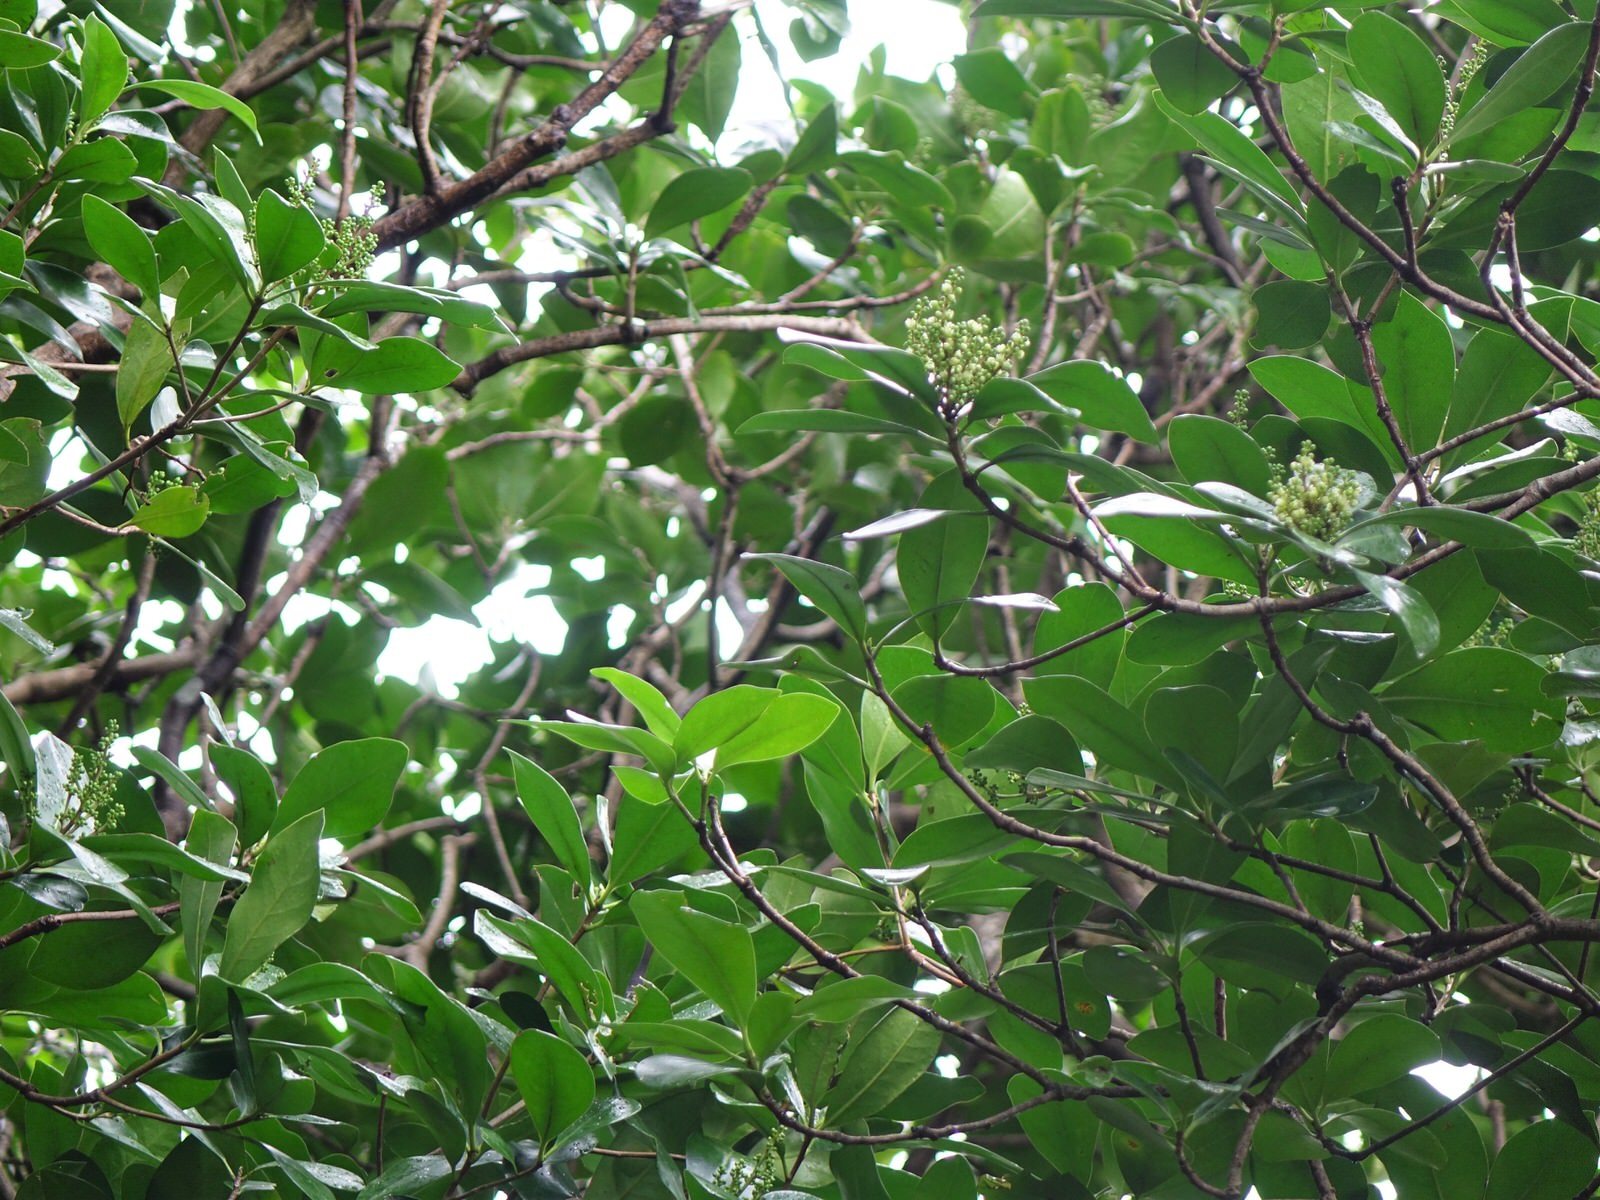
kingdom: Plantae
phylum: Tracheophyta
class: Magnoliopsida
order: Cucurbitales
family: Corynocarpaceae
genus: Corynocarpus
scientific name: Corynocarpus laevigatus
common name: New zealand laurel
